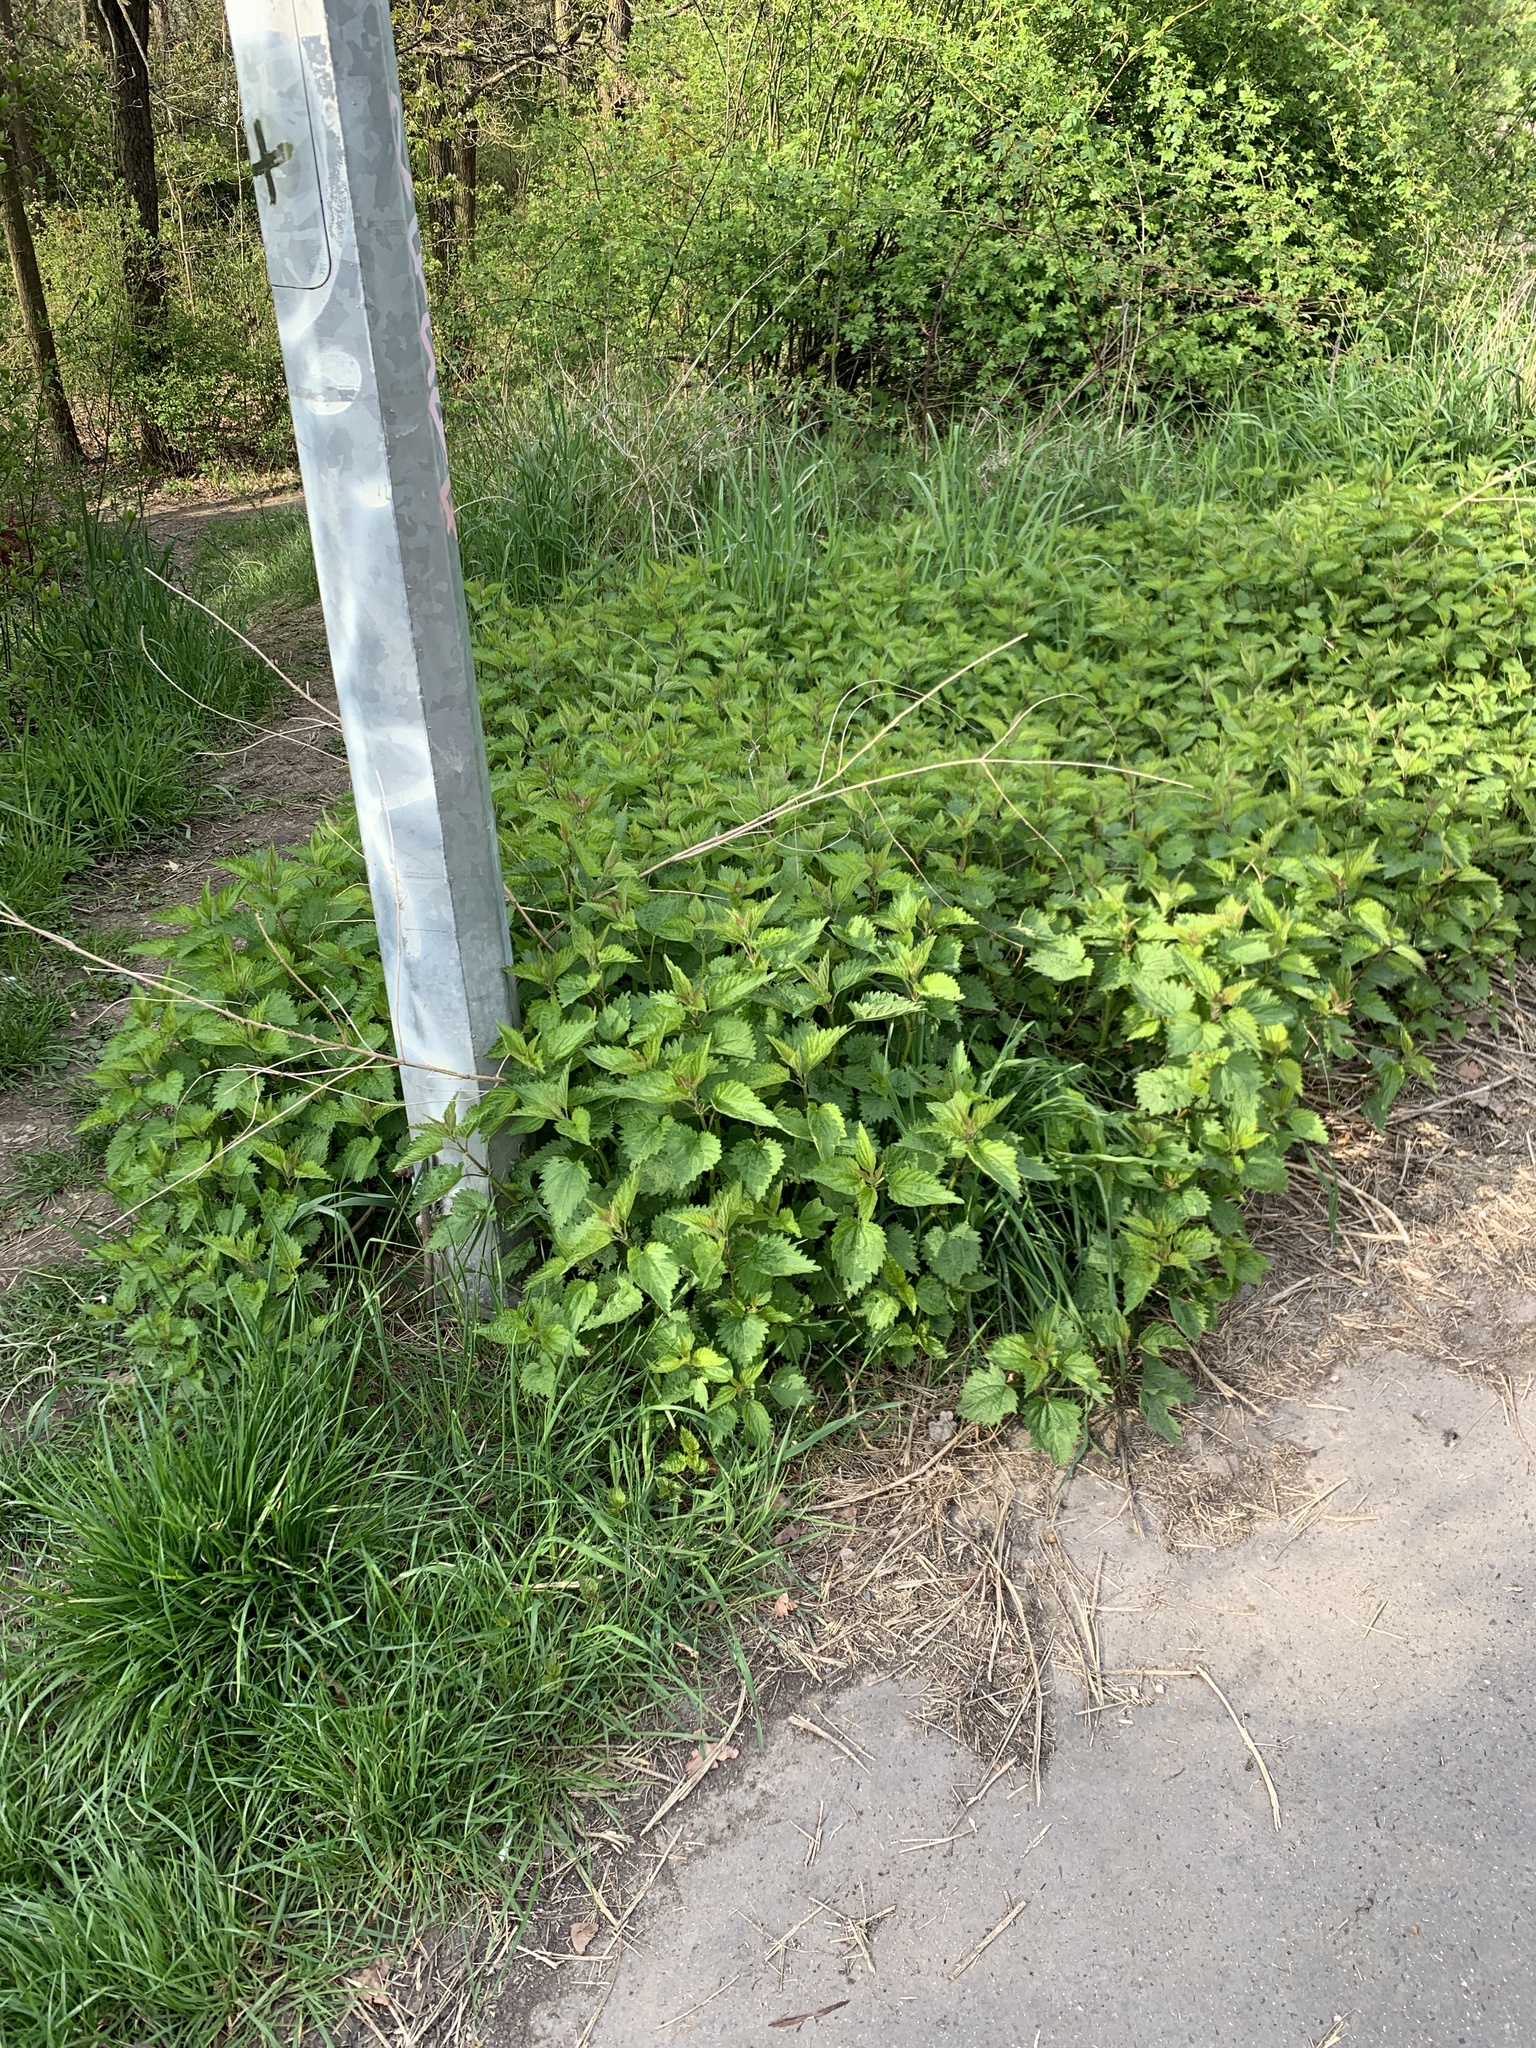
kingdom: Plantae
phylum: Tracheophyta
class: Magnoliopsida
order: Rosales
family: Urticaceae
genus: Urtica
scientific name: Urtica dioica
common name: Common nettle
